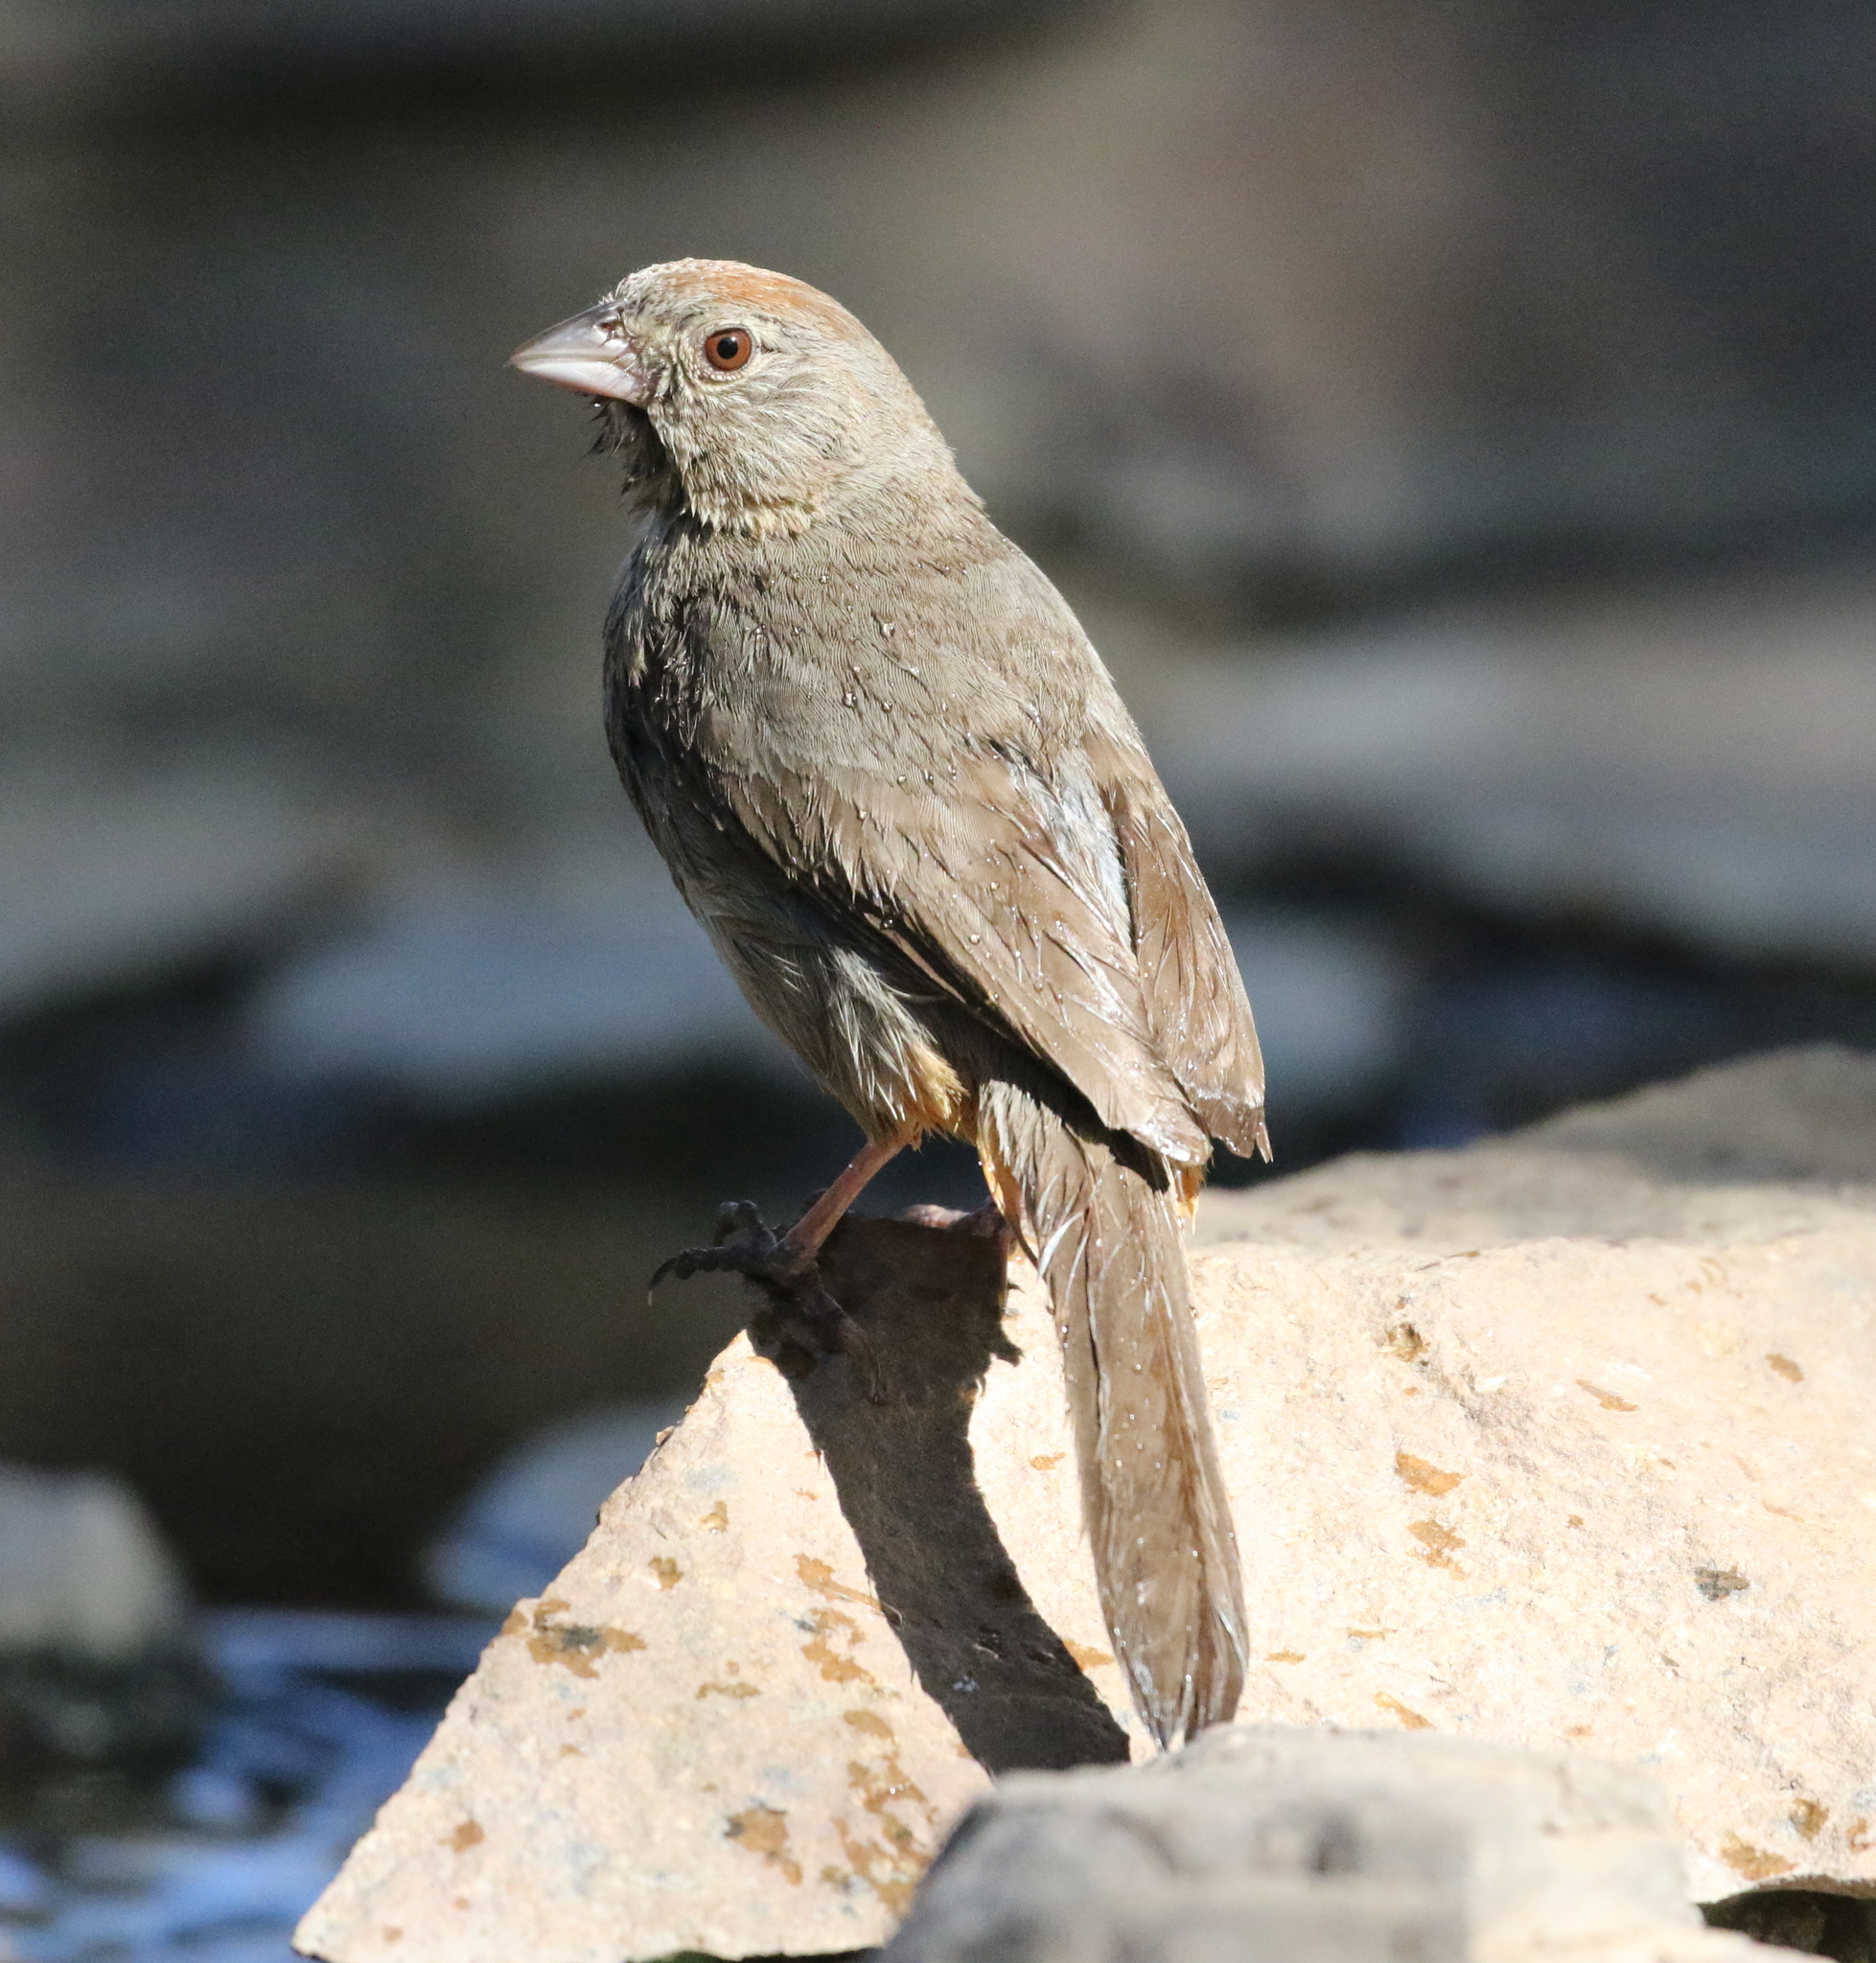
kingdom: Animalia
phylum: Chordata
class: Aves
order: Passeriformes
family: Passerellidae
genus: Melozone
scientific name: Melozone fusca
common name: Canyon towhee
